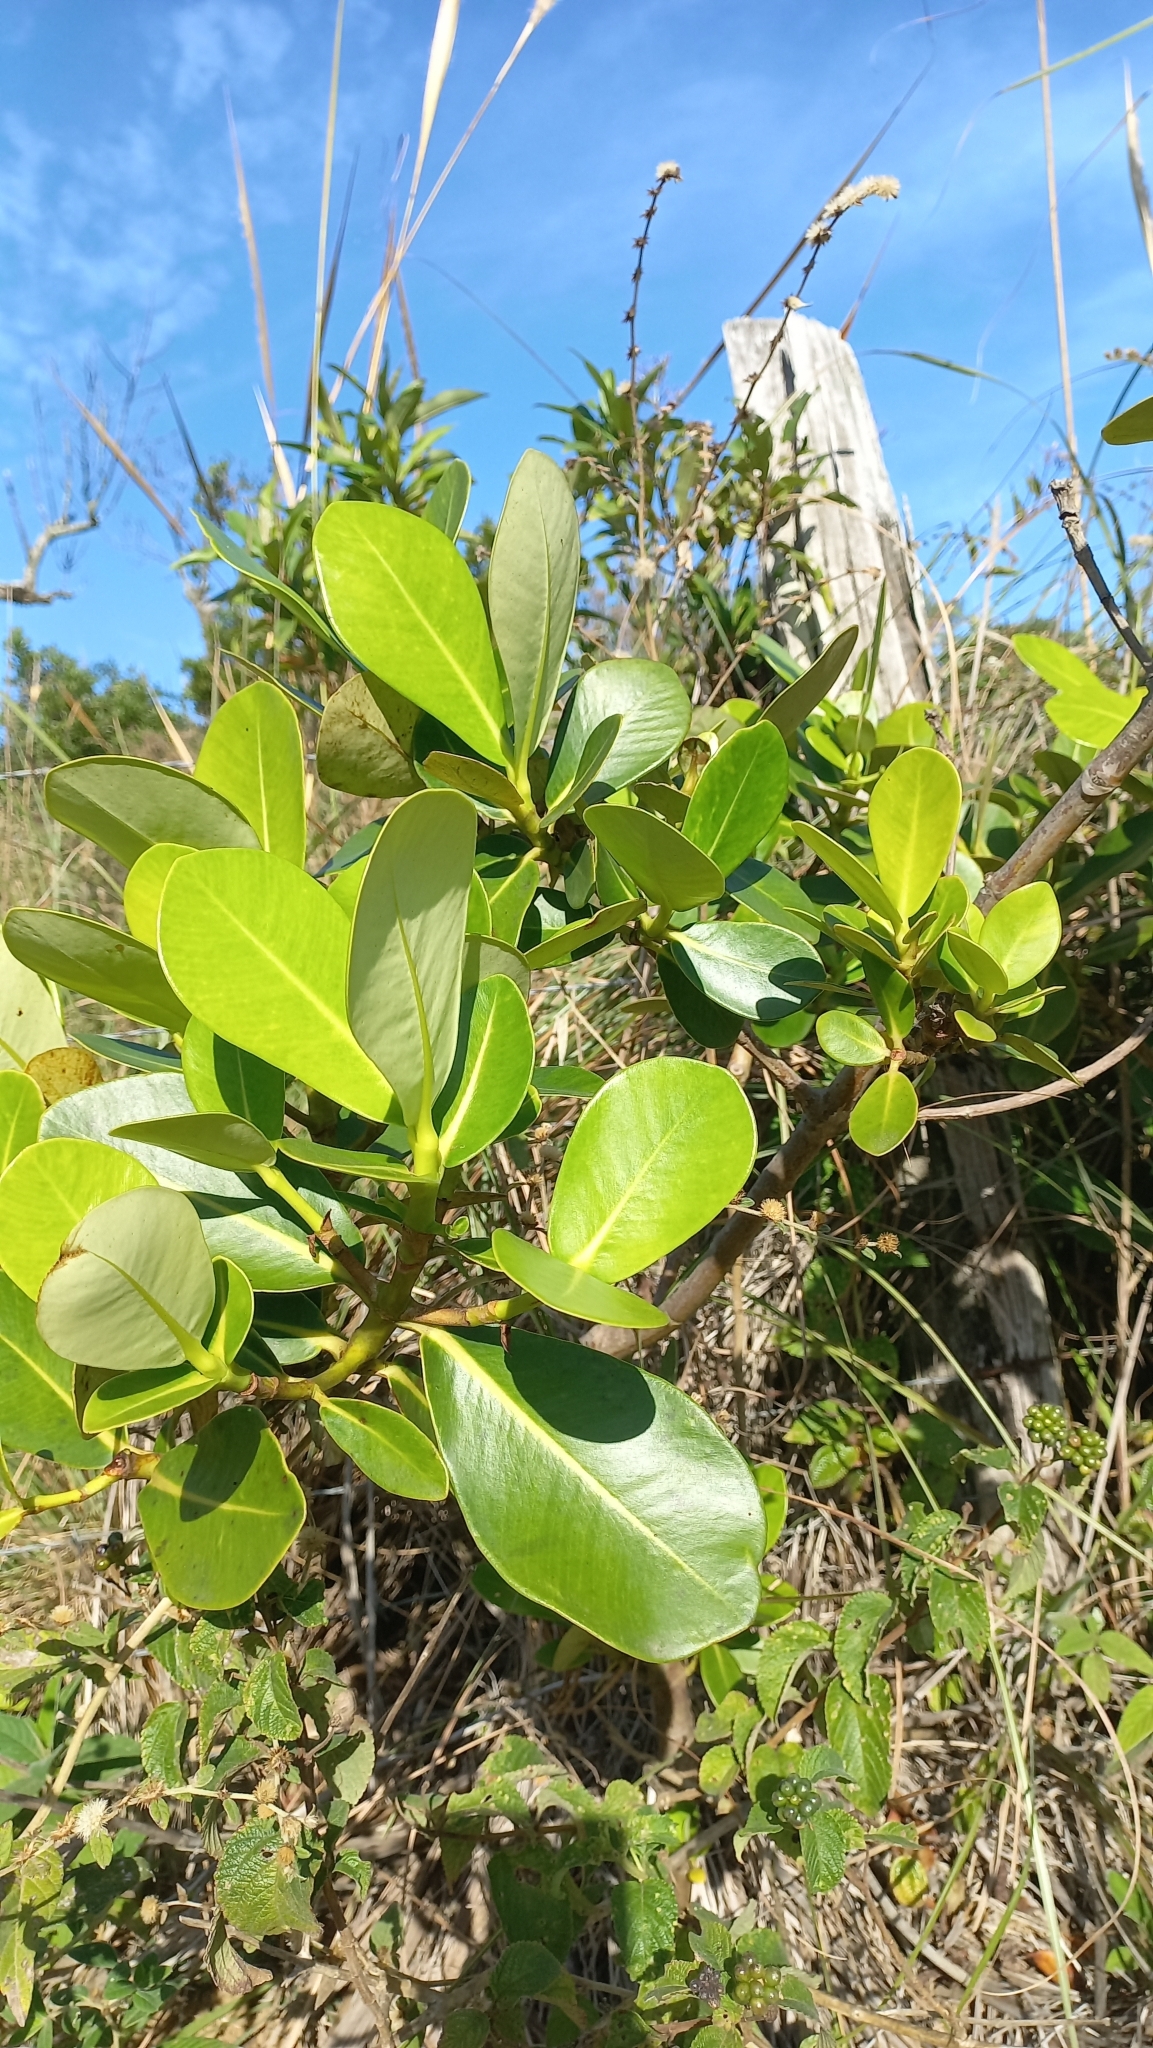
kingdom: Plantae
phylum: Tracheophyta
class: Magnoliopsida
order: Malpighiales
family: Clusiaceae
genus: Clusia
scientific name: Clusia criuva
